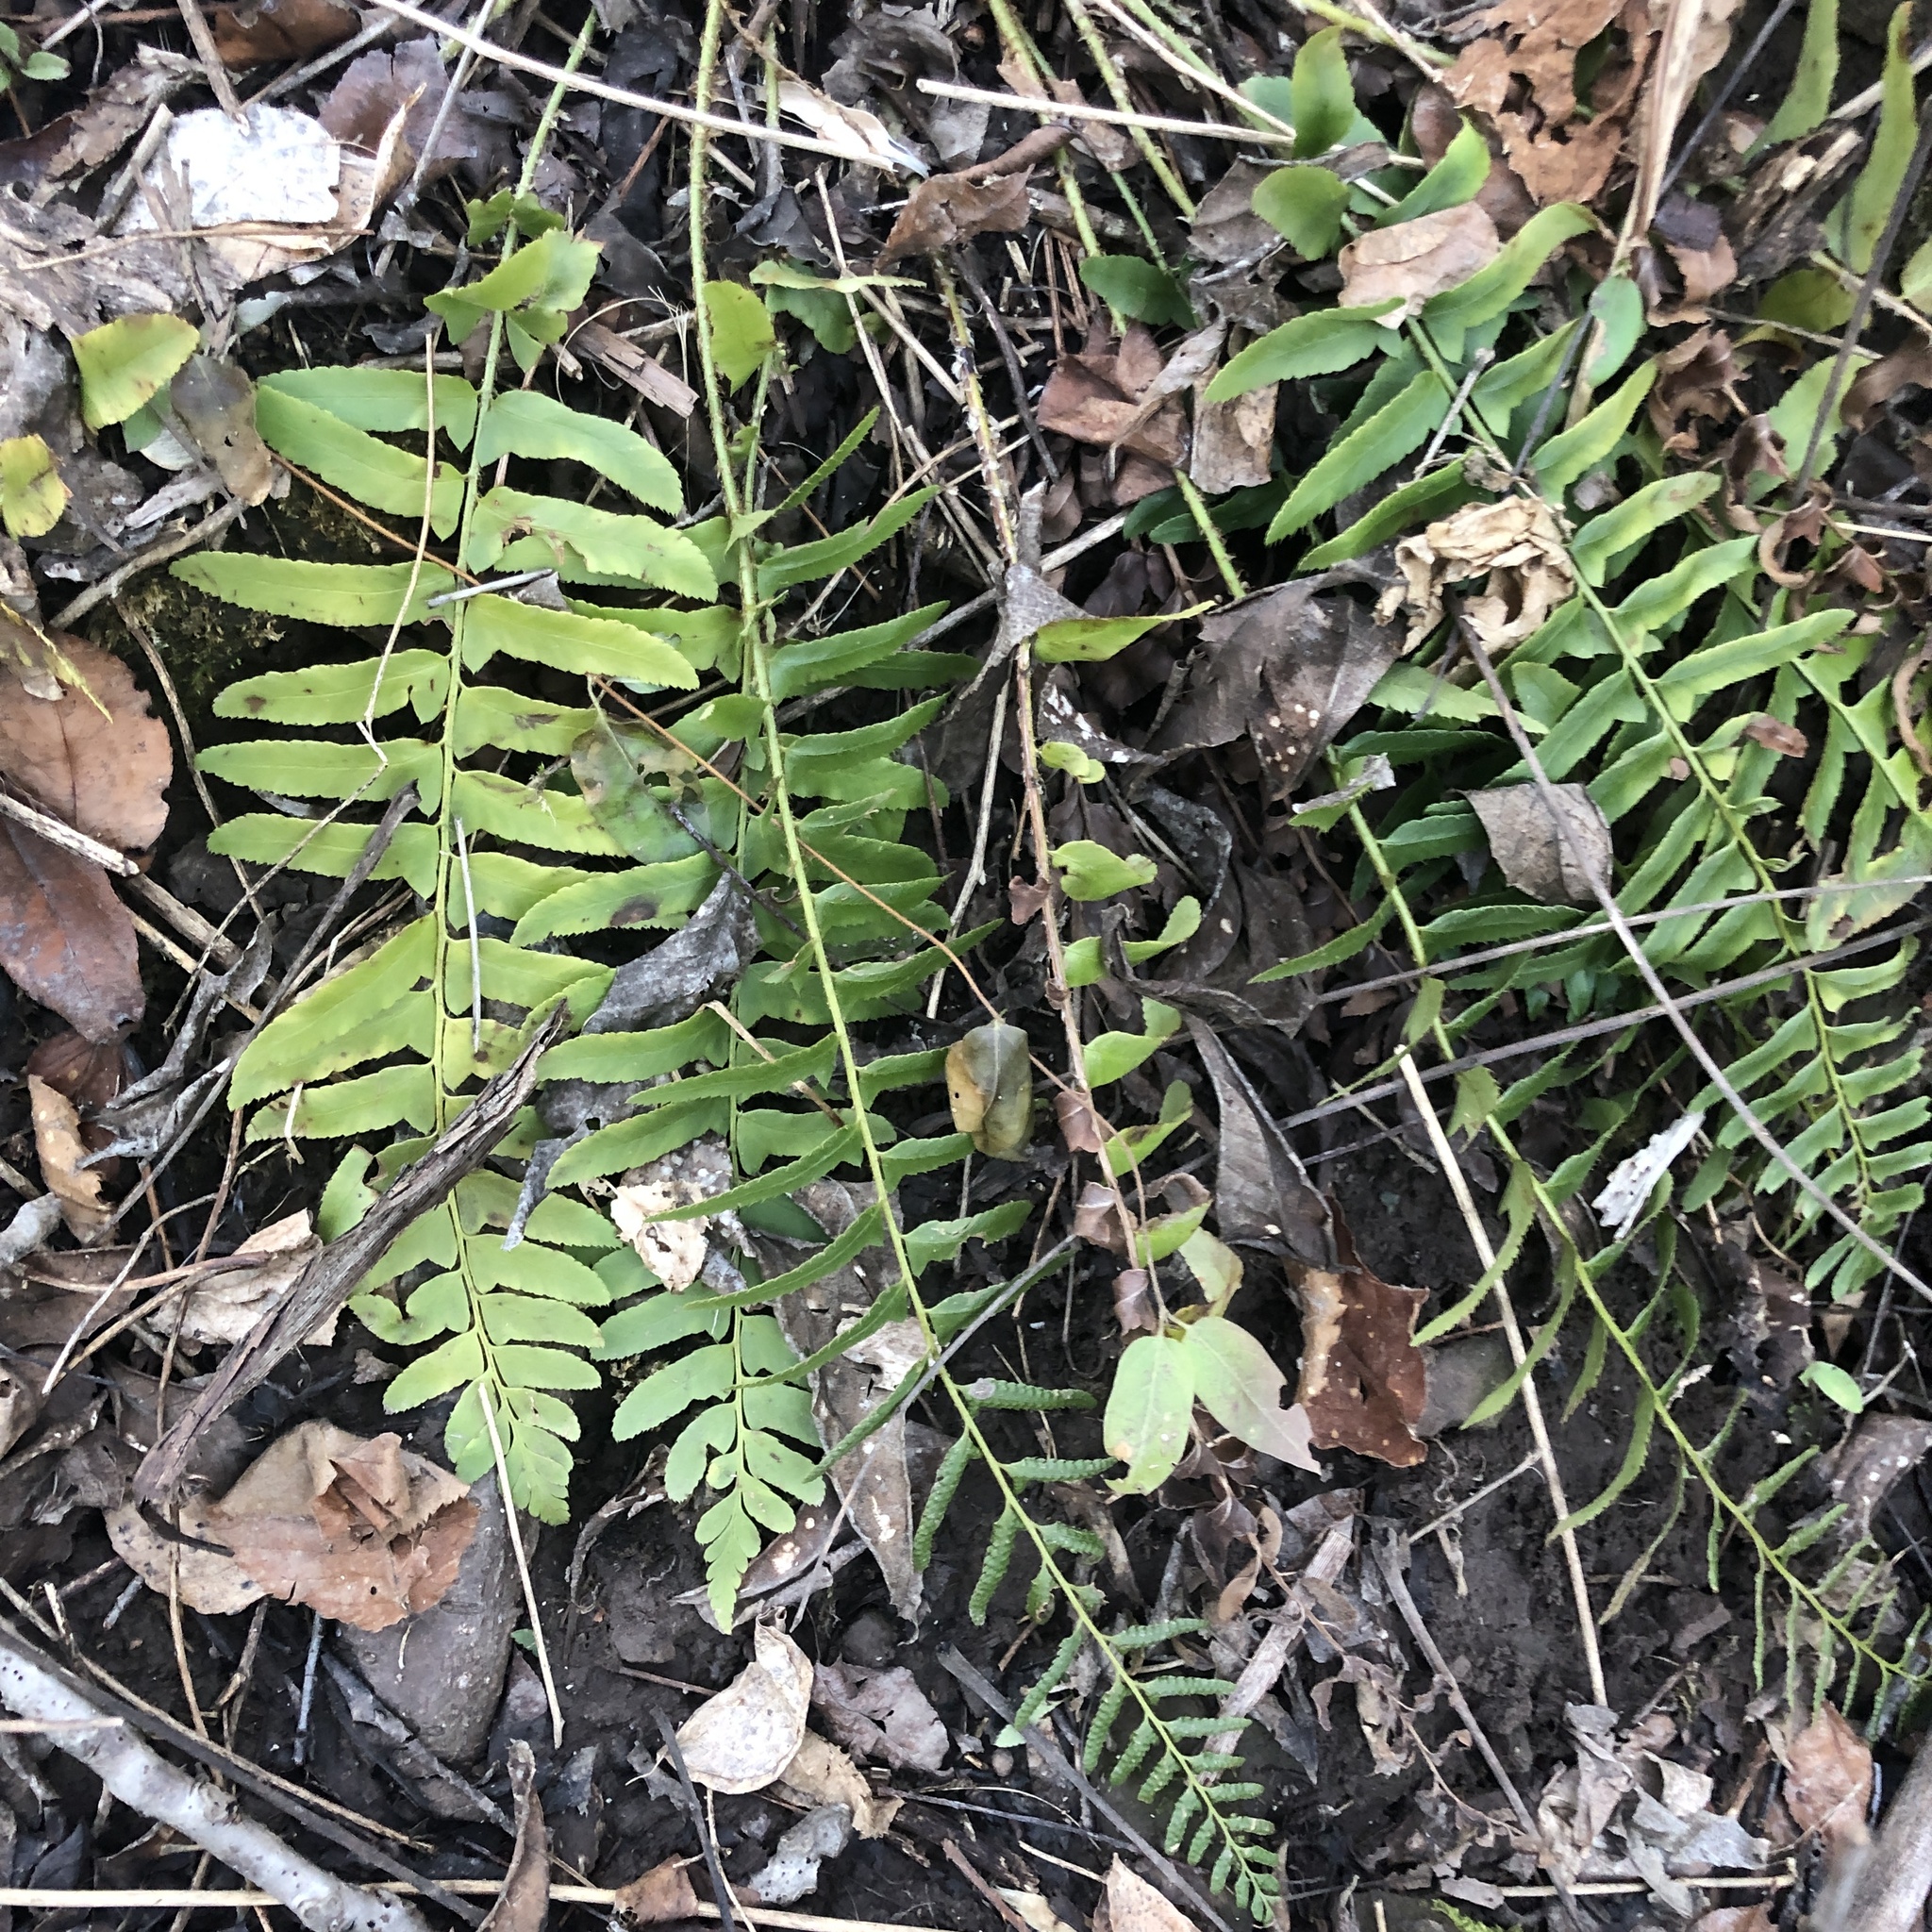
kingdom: Plantae
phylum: Tracheophyta
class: Polypodiopsida
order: Polypodiales
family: Dryopteridaceae
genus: Polystichum
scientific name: Polystichum acrostichoides
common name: Christmas fern
